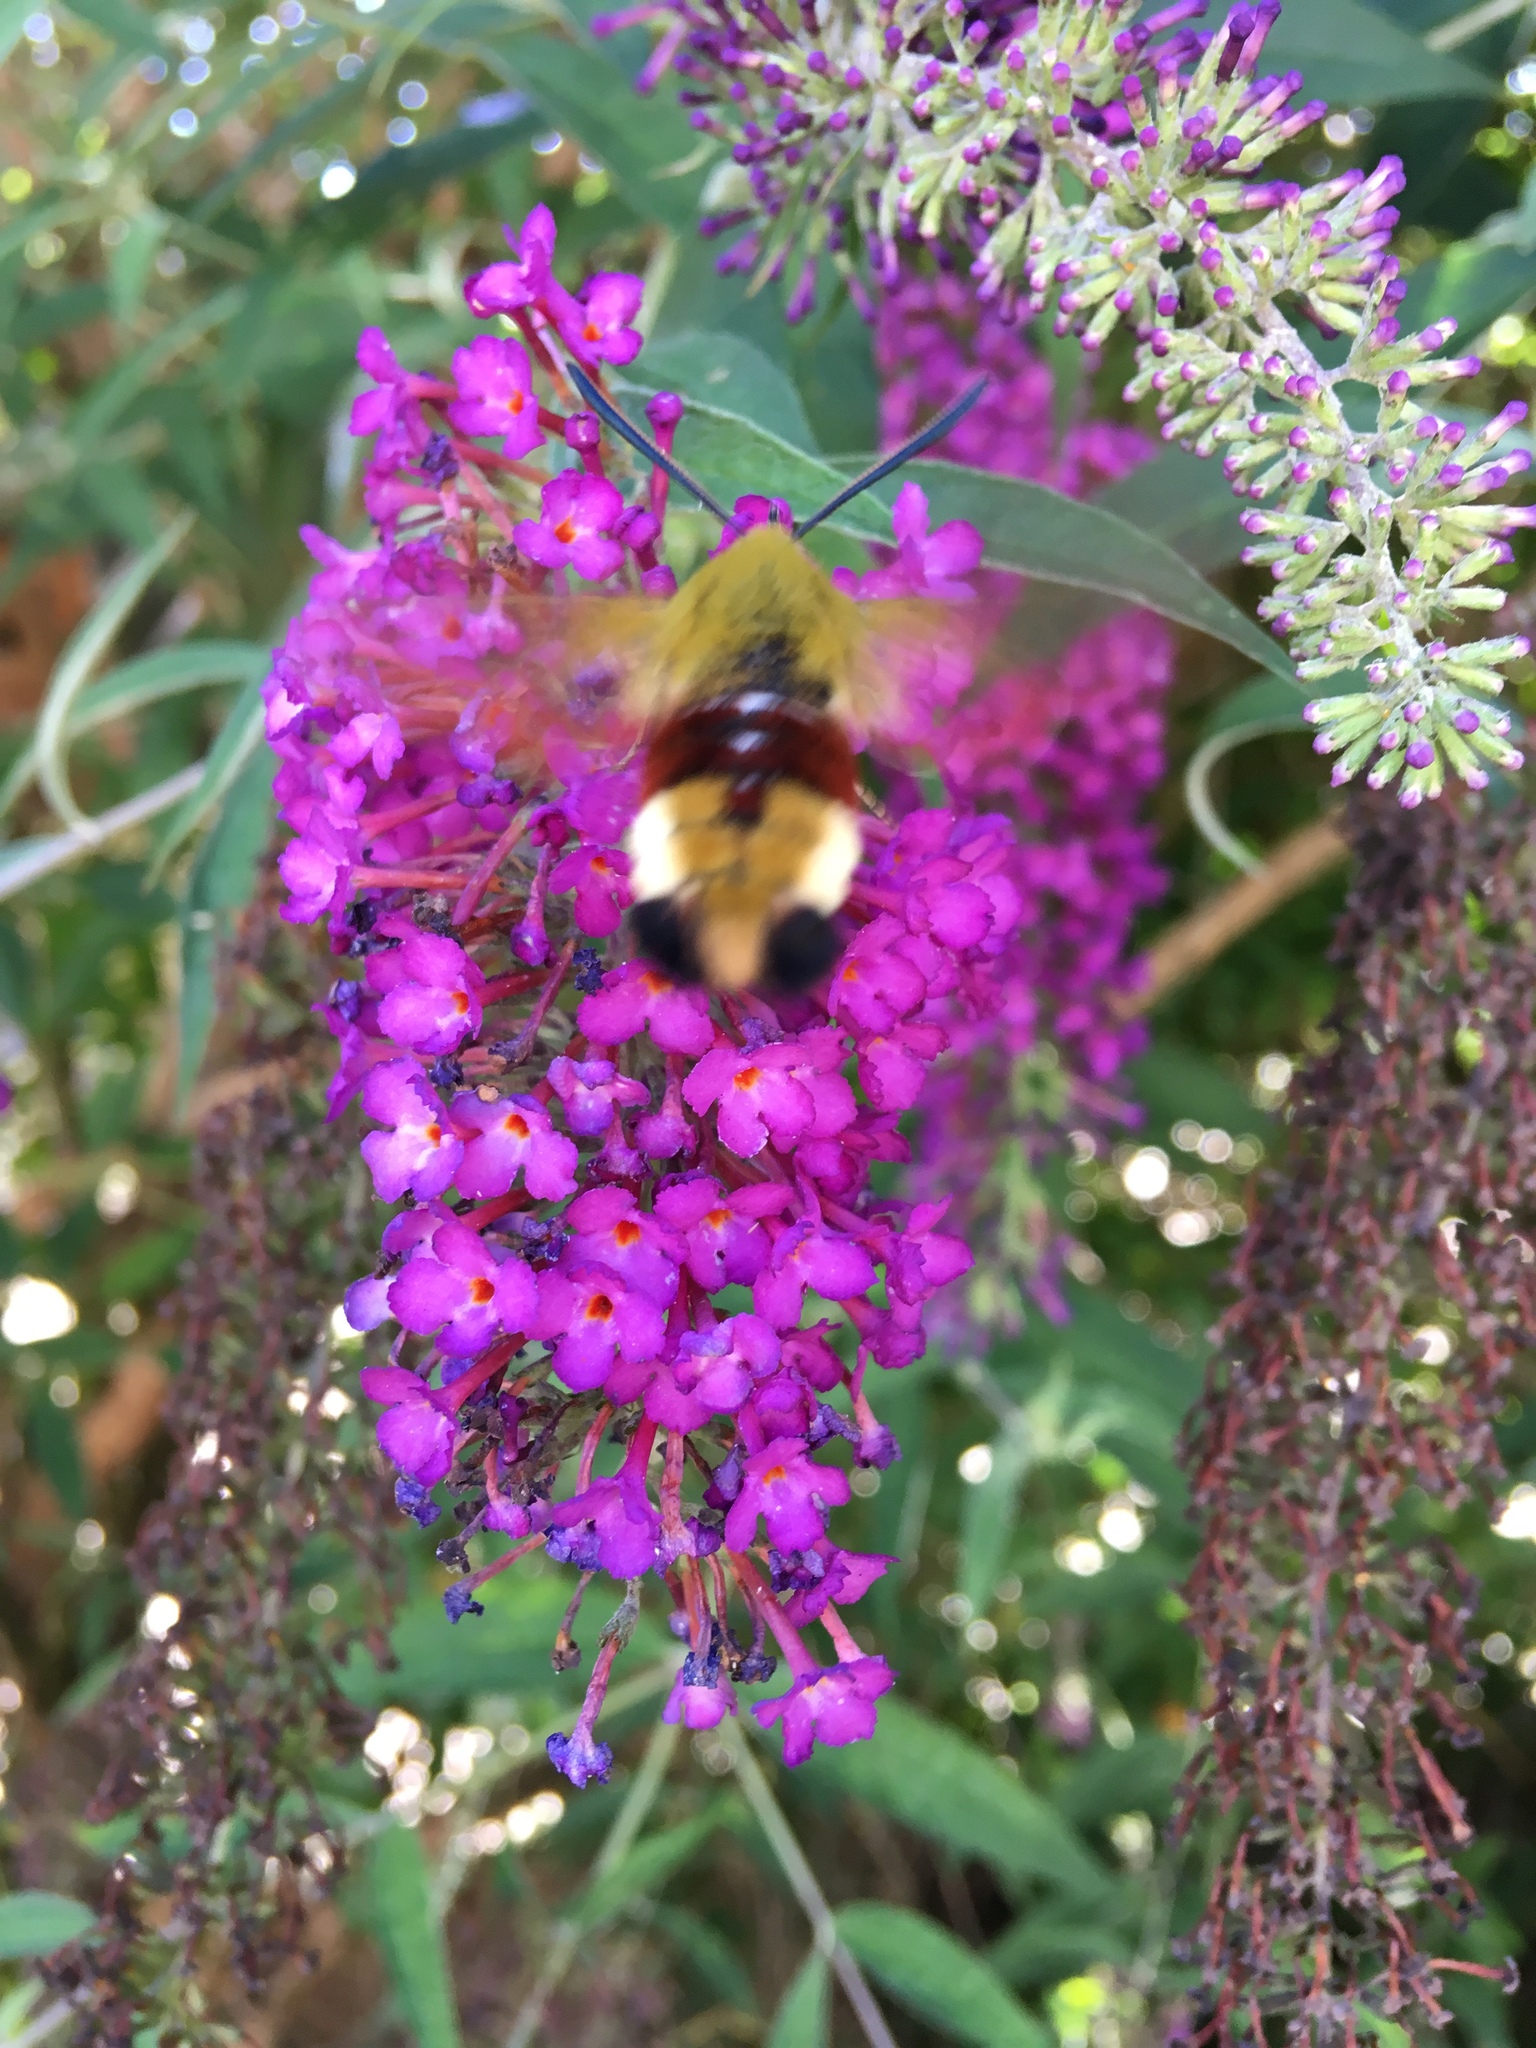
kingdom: Animalia
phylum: Arthropoda
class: Insecta
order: Lepidoptera
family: Sphingidae
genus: Hemaris
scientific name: Hemaris fuciformis
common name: Broad-bordered bee hawk-moth
